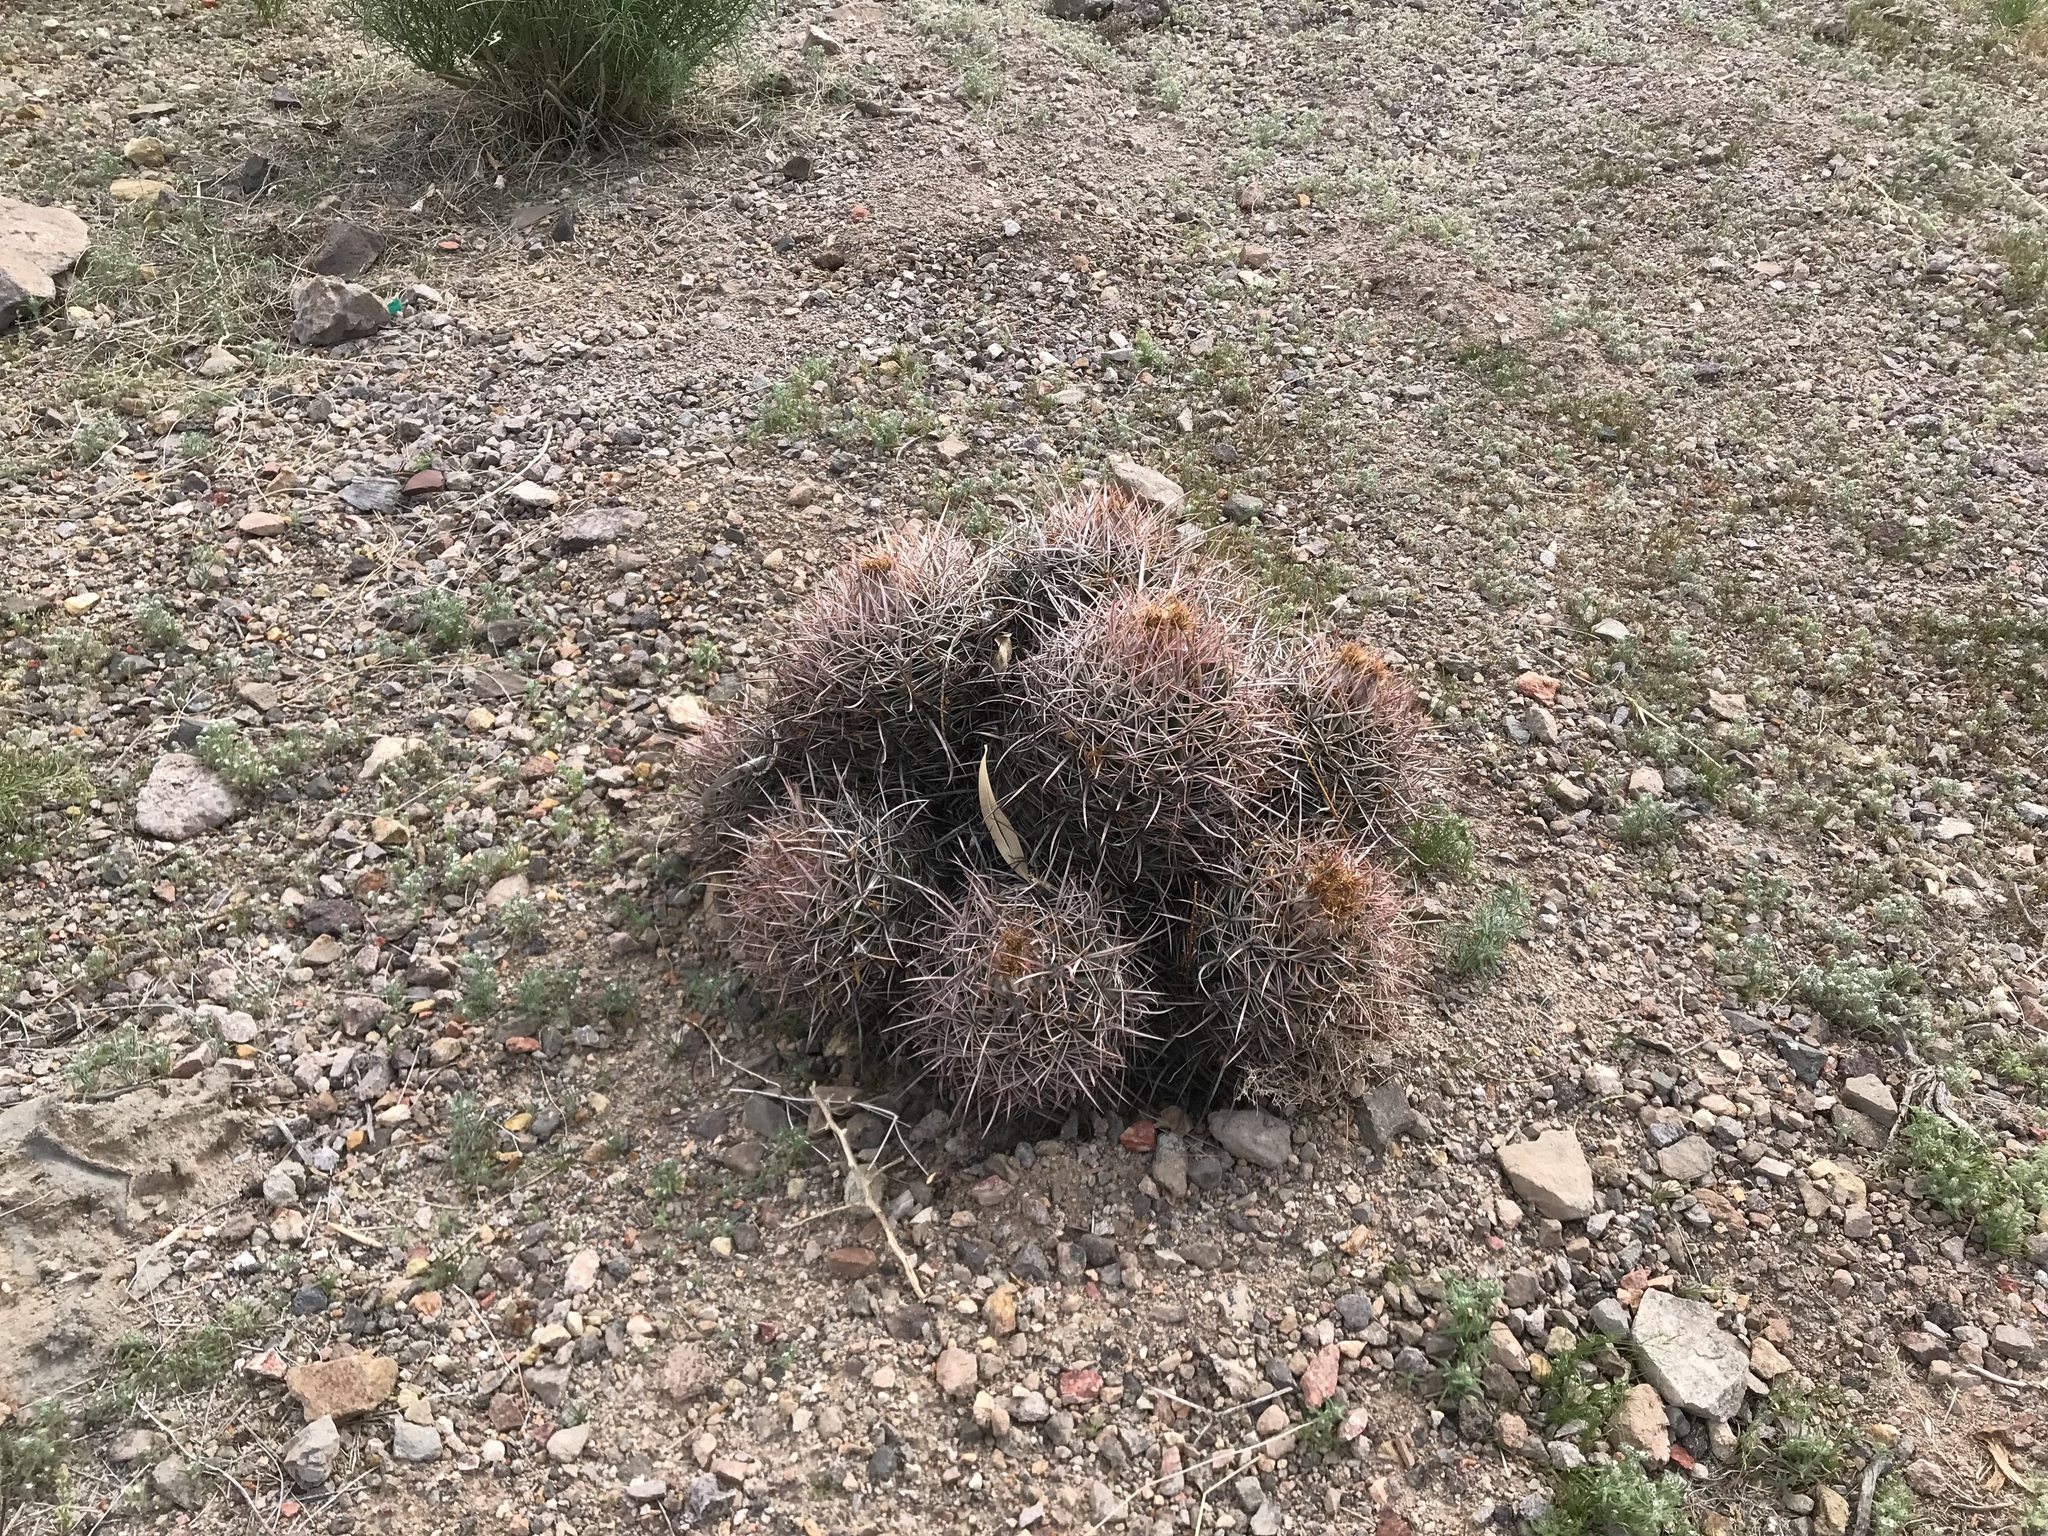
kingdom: Plantae
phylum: Tracheophyta
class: Magnoliopsida
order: Caryophyllales
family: Cactaceae
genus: Echinocactus
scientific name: Echinocactus polycephalus
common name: Cottontop cactus
